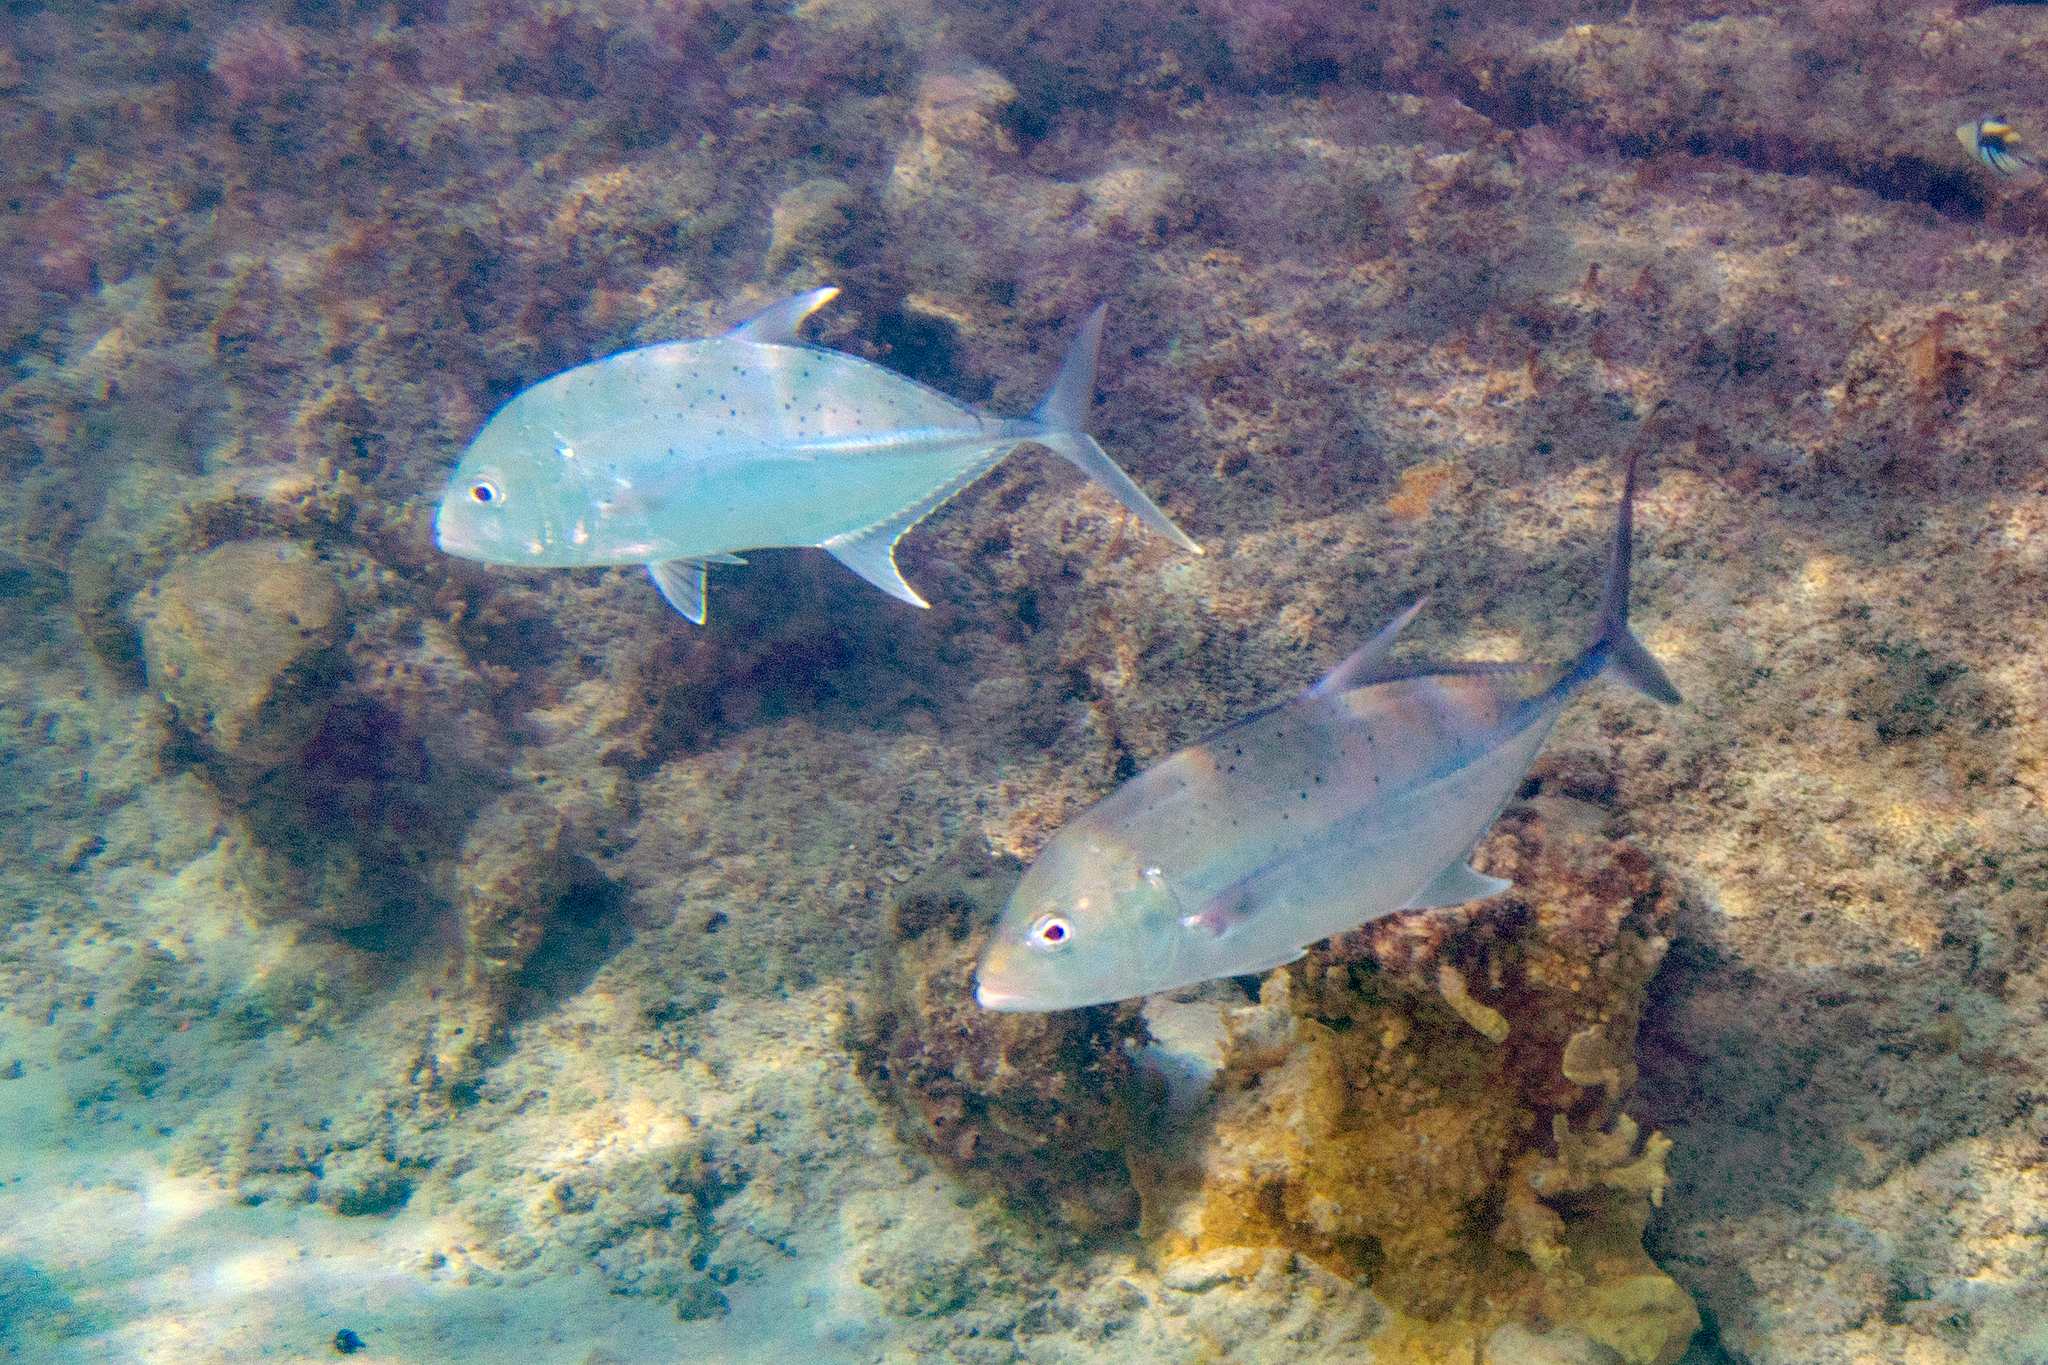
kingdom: Animalia
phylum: Chordata
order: Perciformes
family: Carangidae
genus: Caranx
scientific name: Caranx papuensis
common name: Brassy trevally
